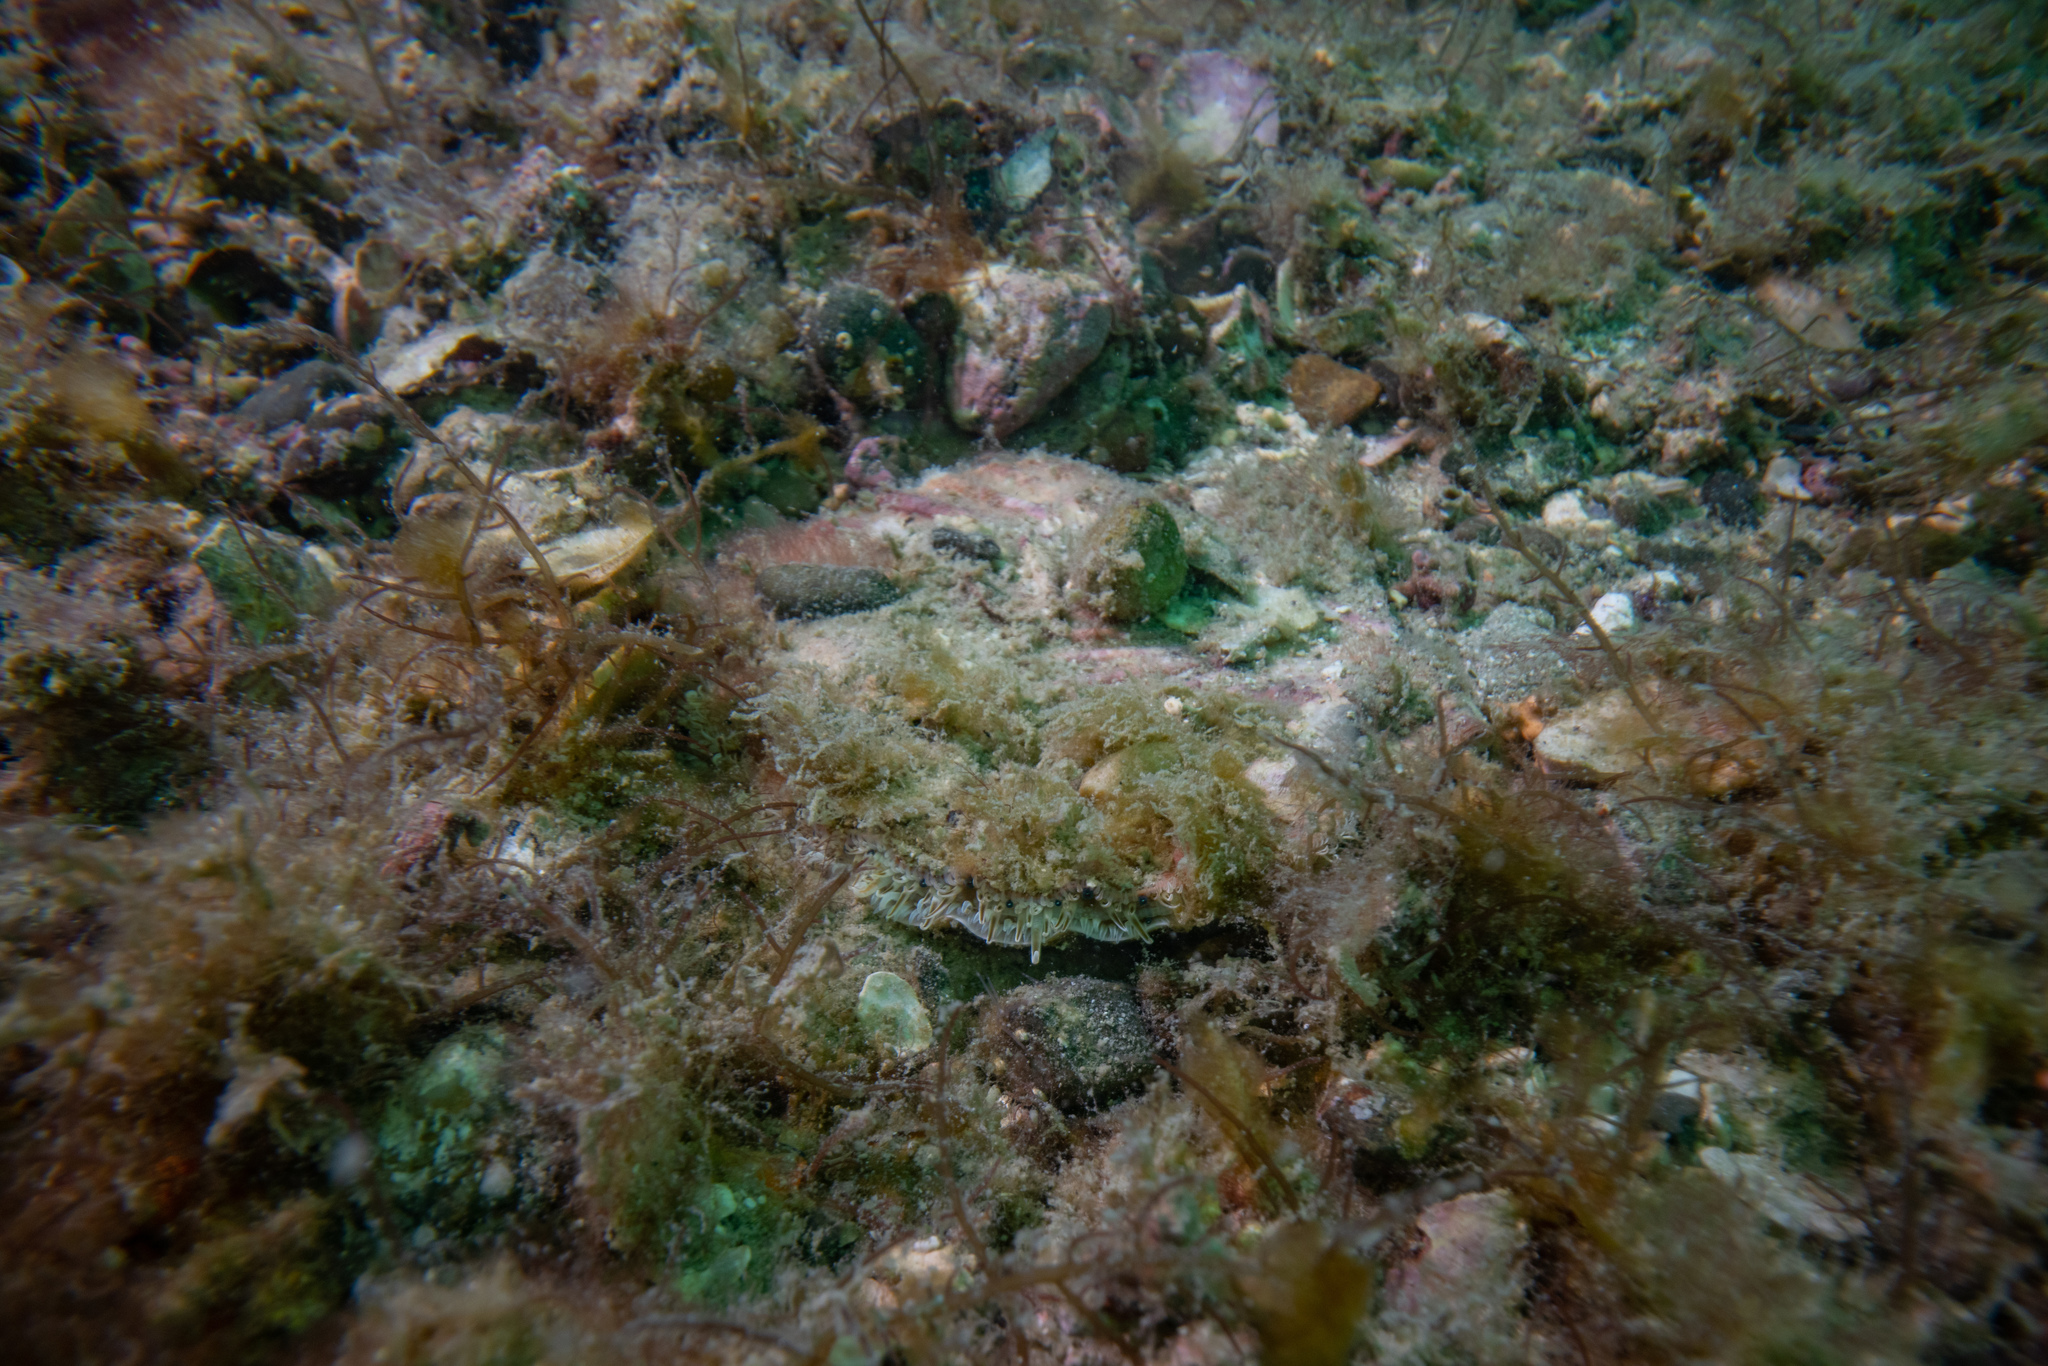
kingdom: Animalia
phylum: Mollusca
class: Bivalvia
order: Pectinida
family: Pectinidae
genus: Pecten
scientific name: Pecten novaezelandiae
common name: New zealand scallop
